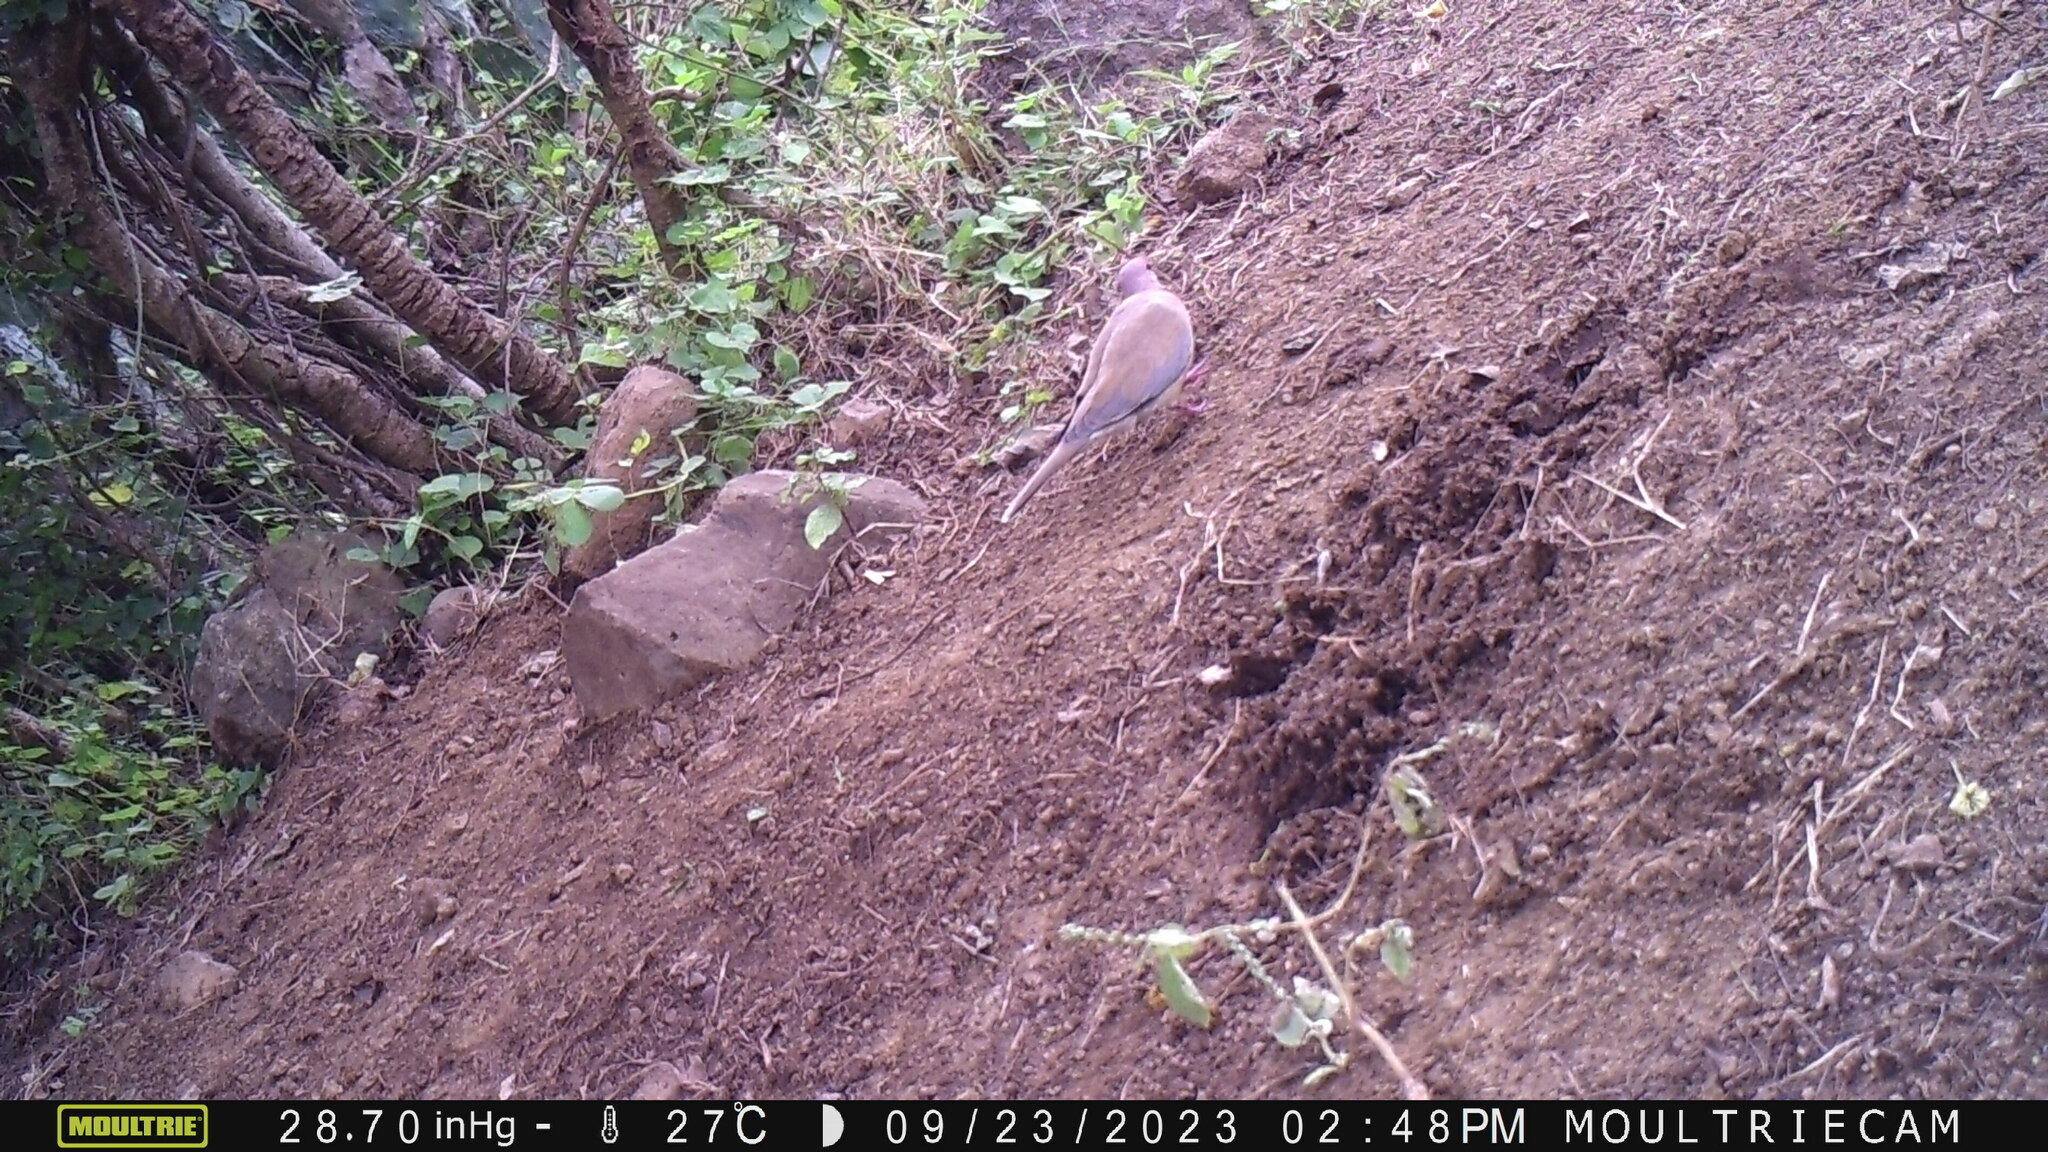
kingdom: Animalia
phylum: Chordata
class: Aves
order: Columbiformes
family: Columbidae
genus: Spilopelia
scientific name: Spilopelia senegalensis
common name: Laughing dove
